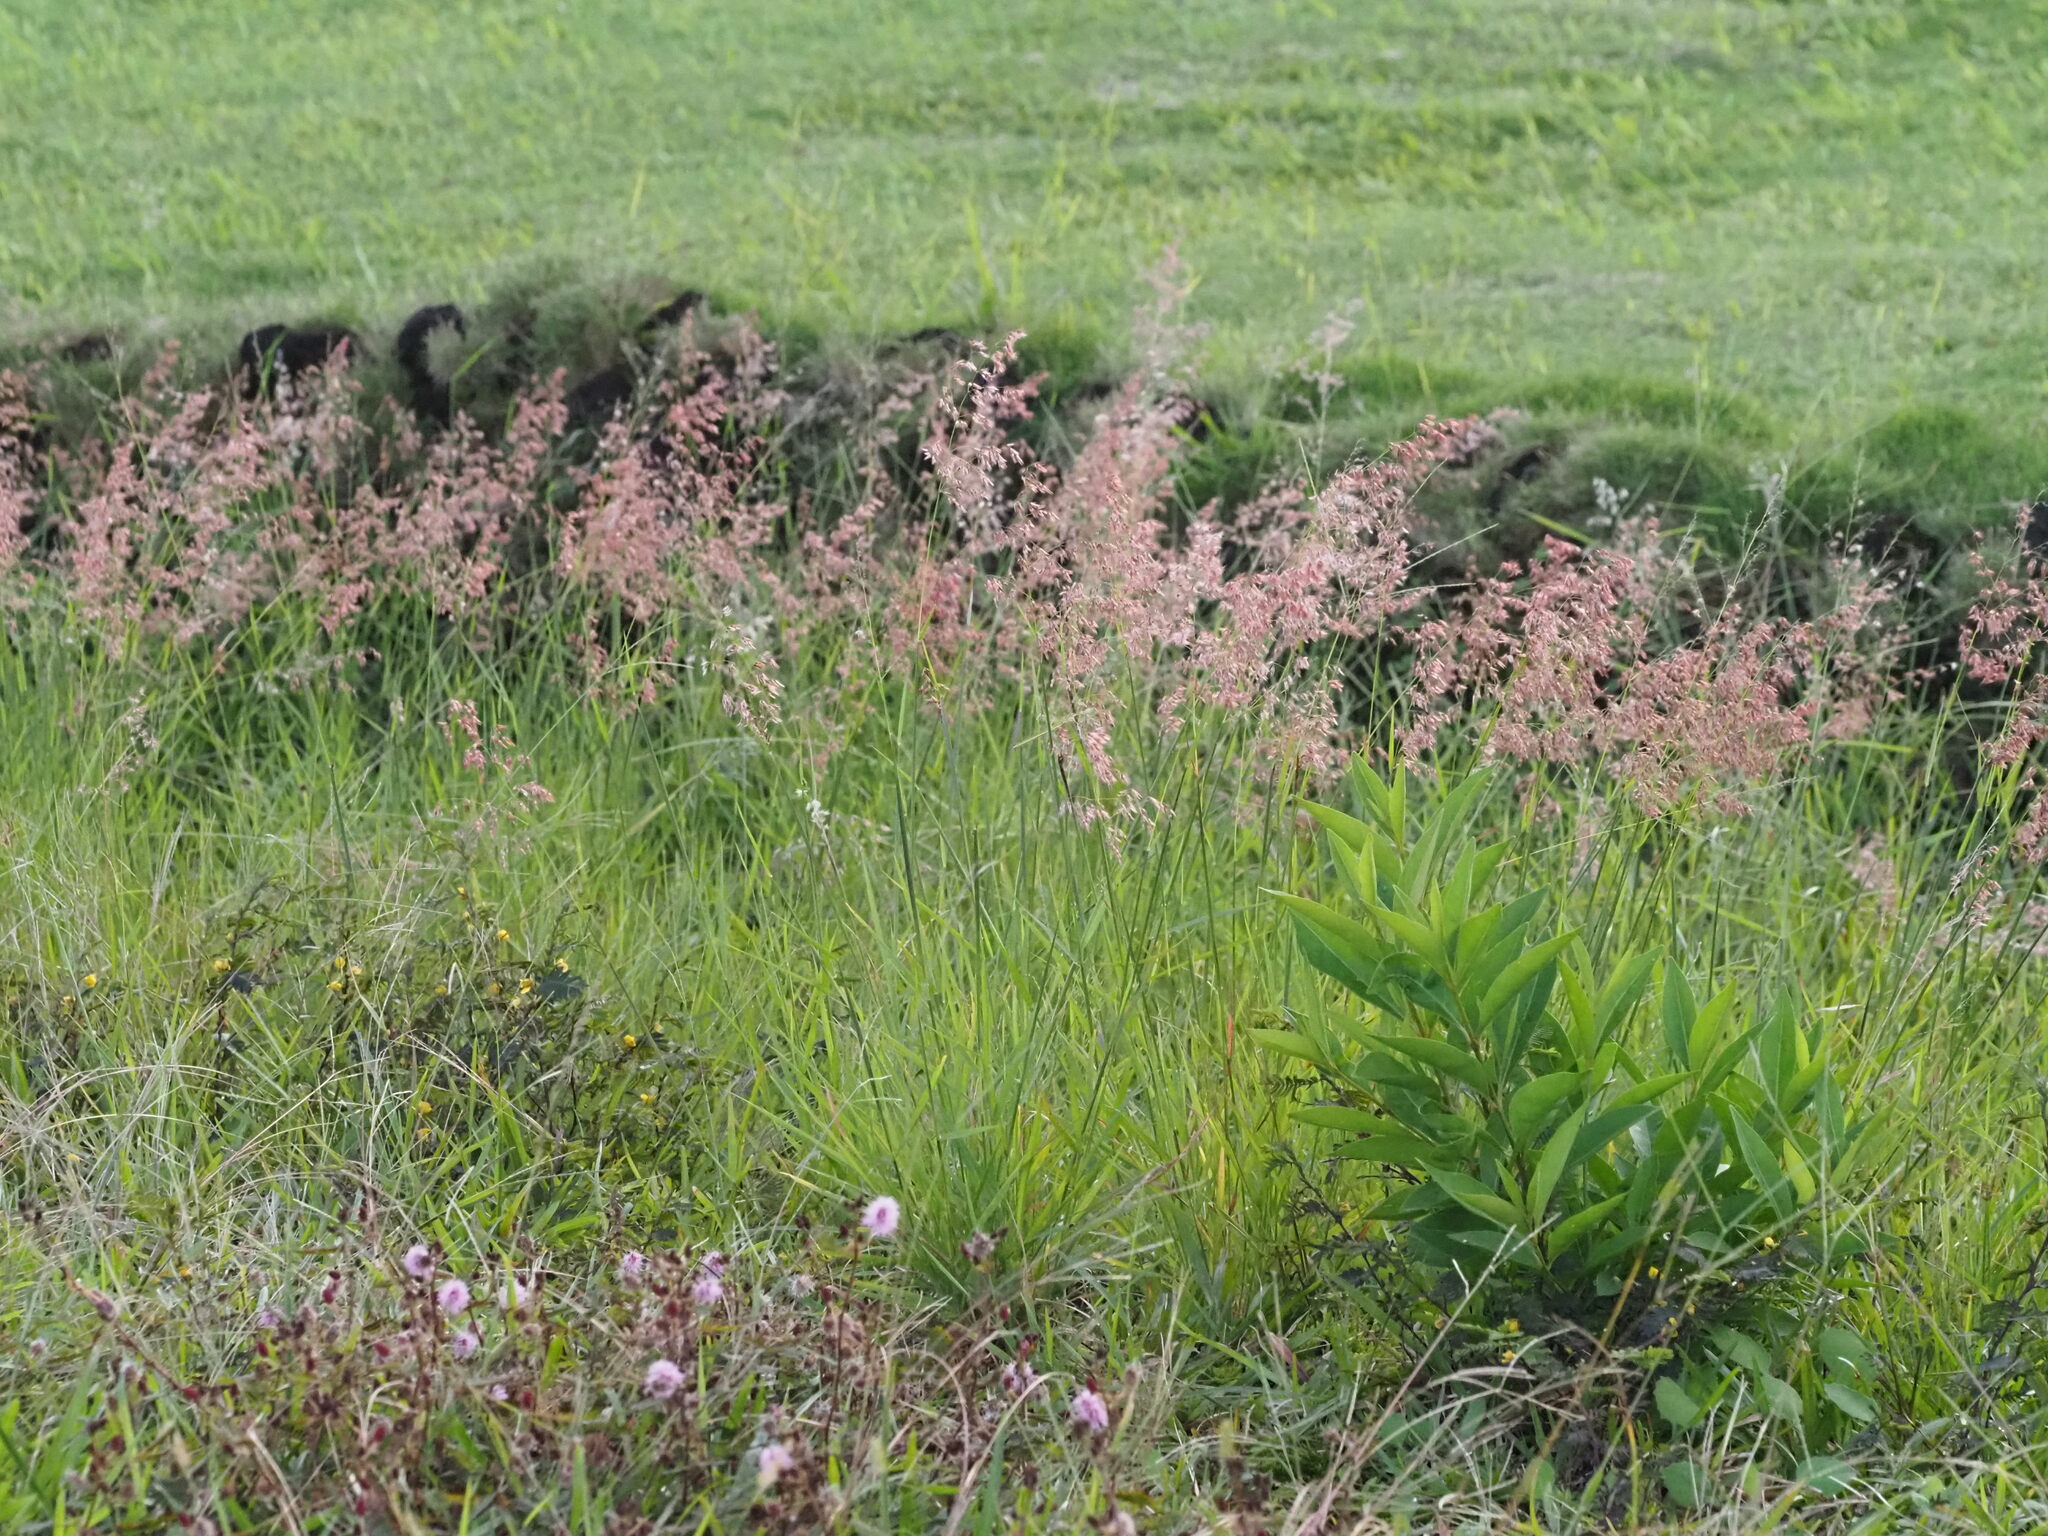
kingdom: Plantae
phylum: Tracheophyta
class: Liliopsida
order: Poales
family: Poaceae
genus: Melinis
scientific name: Melinis repens
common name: Rose natal grass
